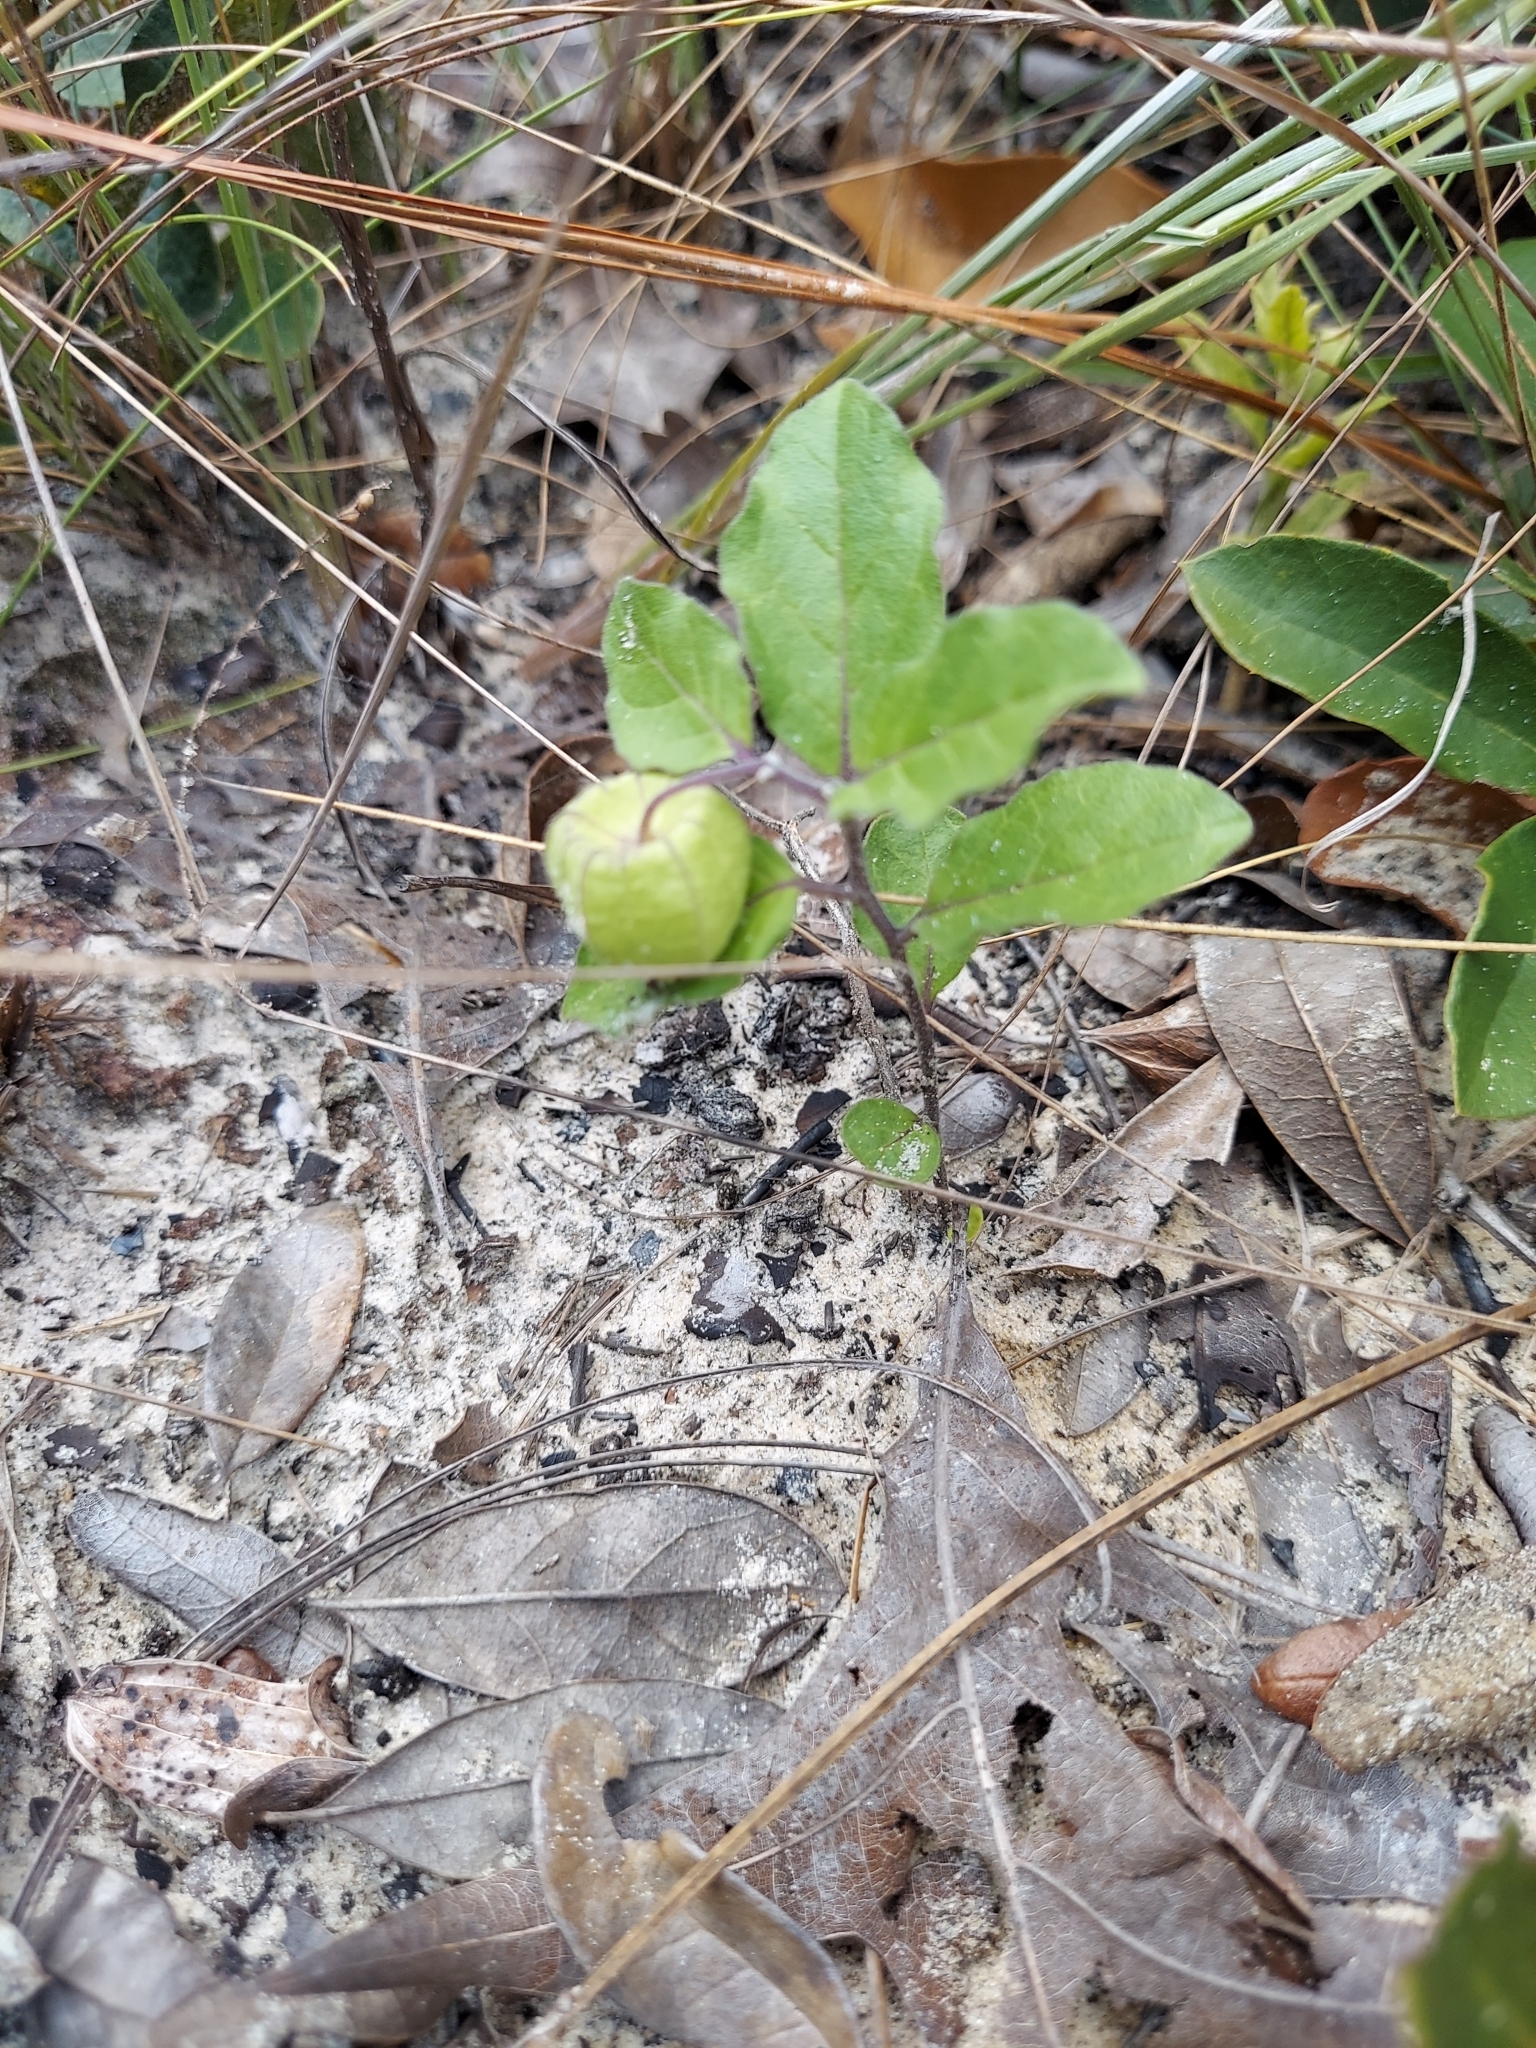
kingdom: Plantae
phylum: Tracheophyta
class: Magnoliopsida
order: Solanales
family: Solanaceae
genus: Physalis
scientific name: Physalis walteri
